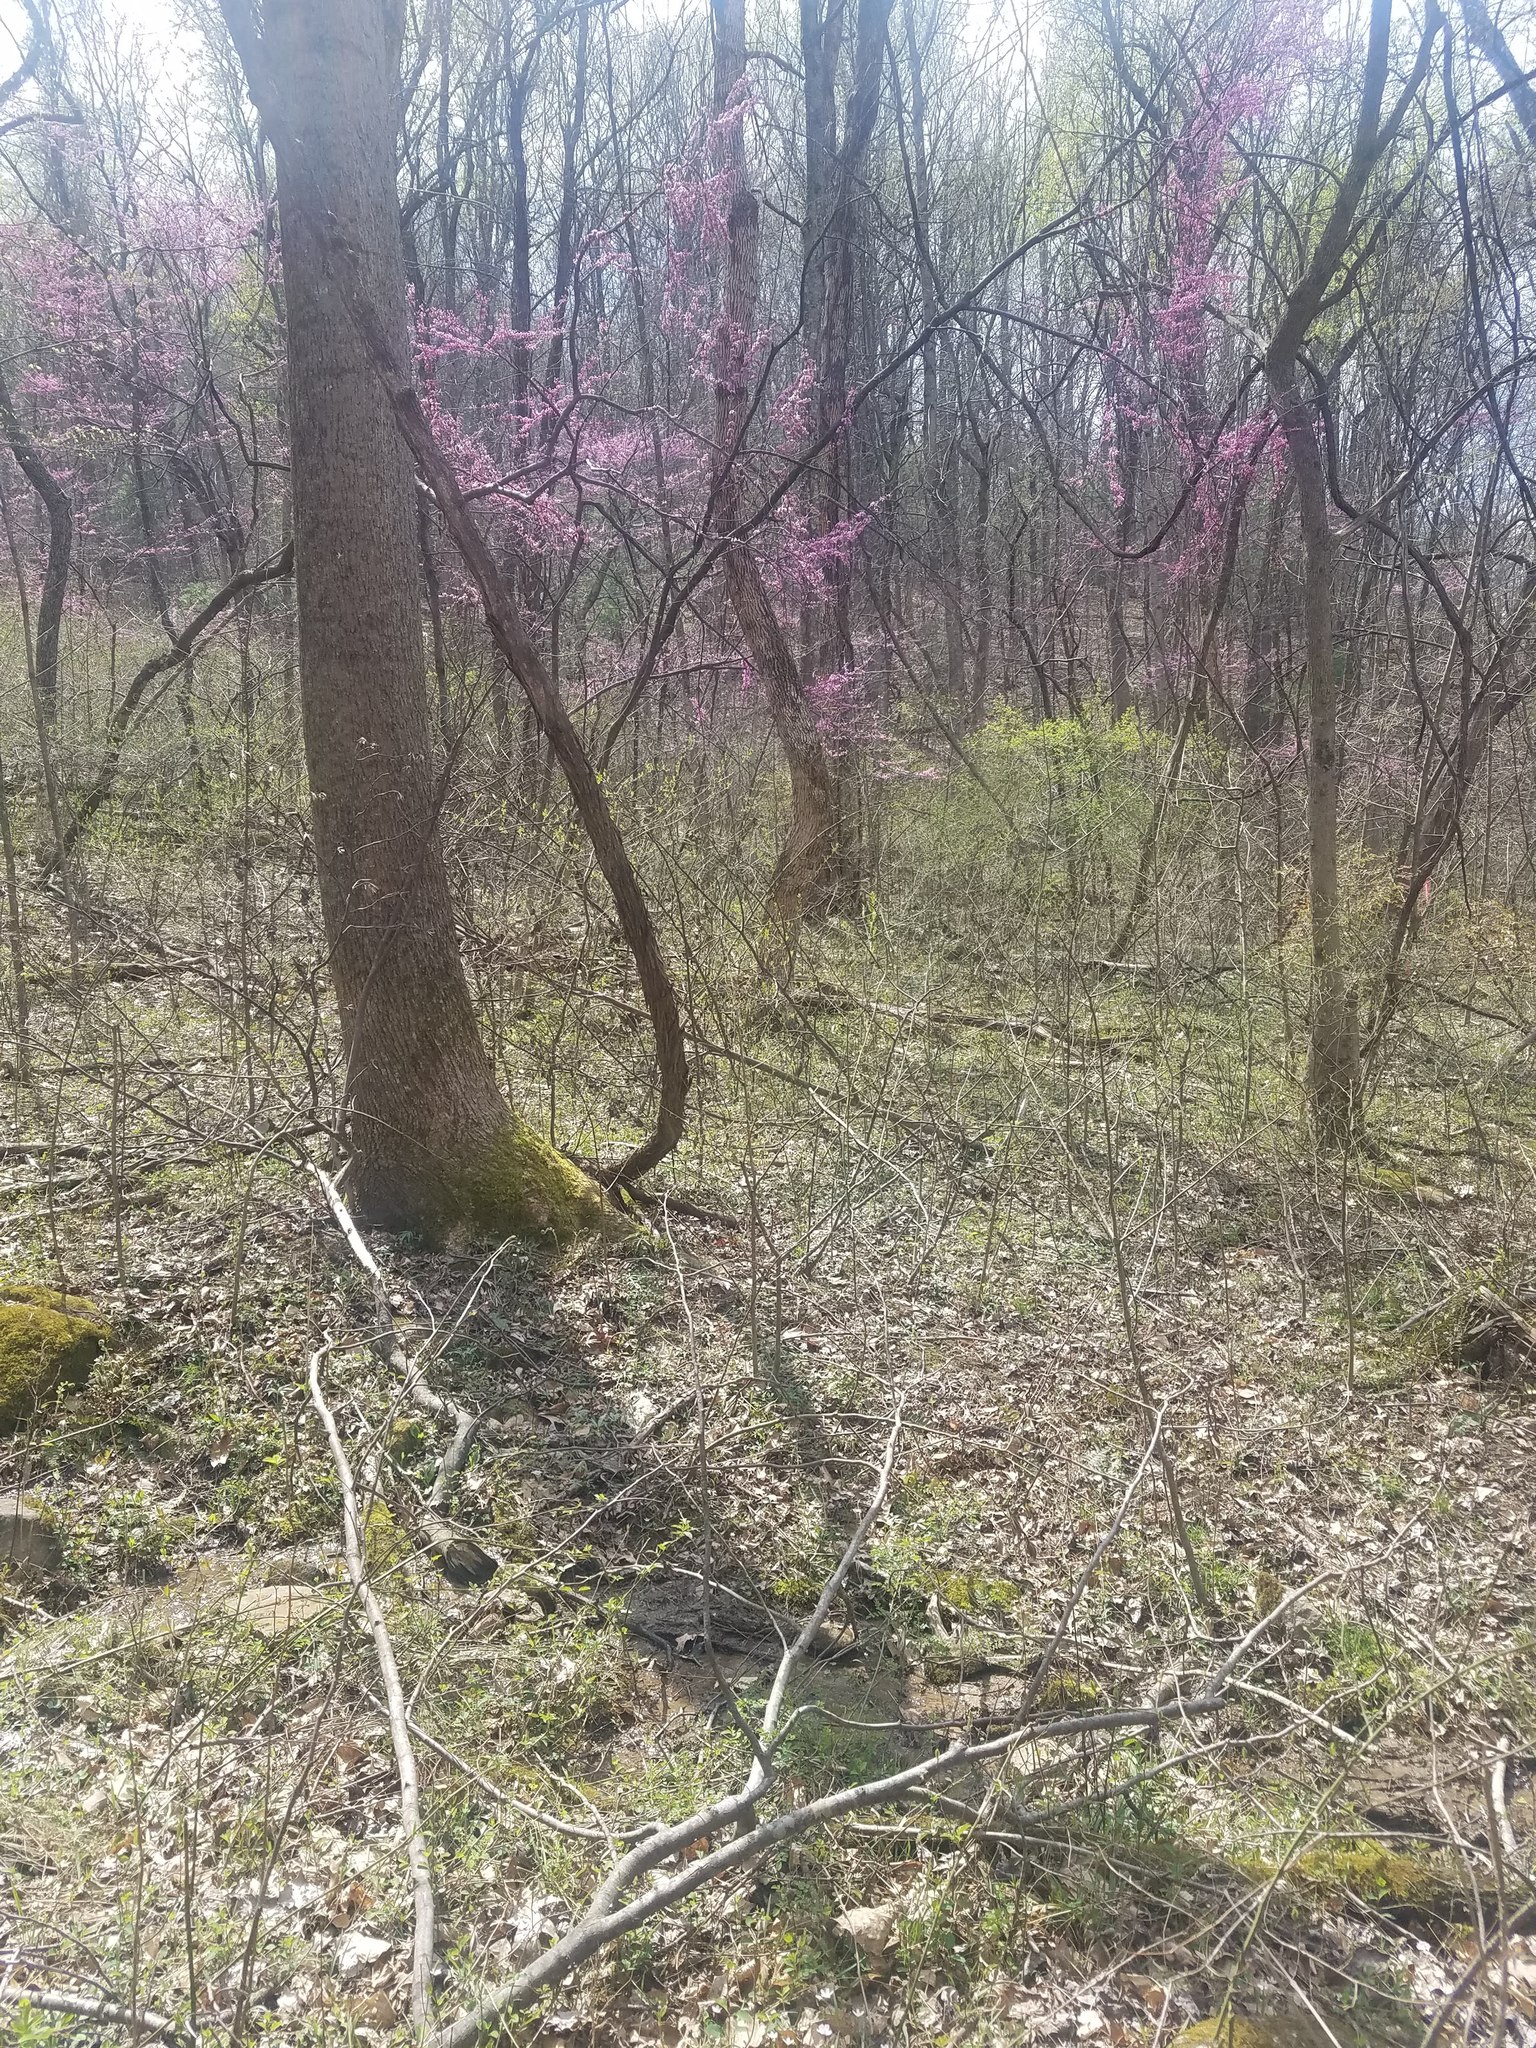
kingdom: Plantae
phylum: Tracheophyta
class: Magnoliopsida
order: Fabales
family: Fabaceae
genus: Cercis
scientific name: Cercis canadensis
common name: Eastern redbud
